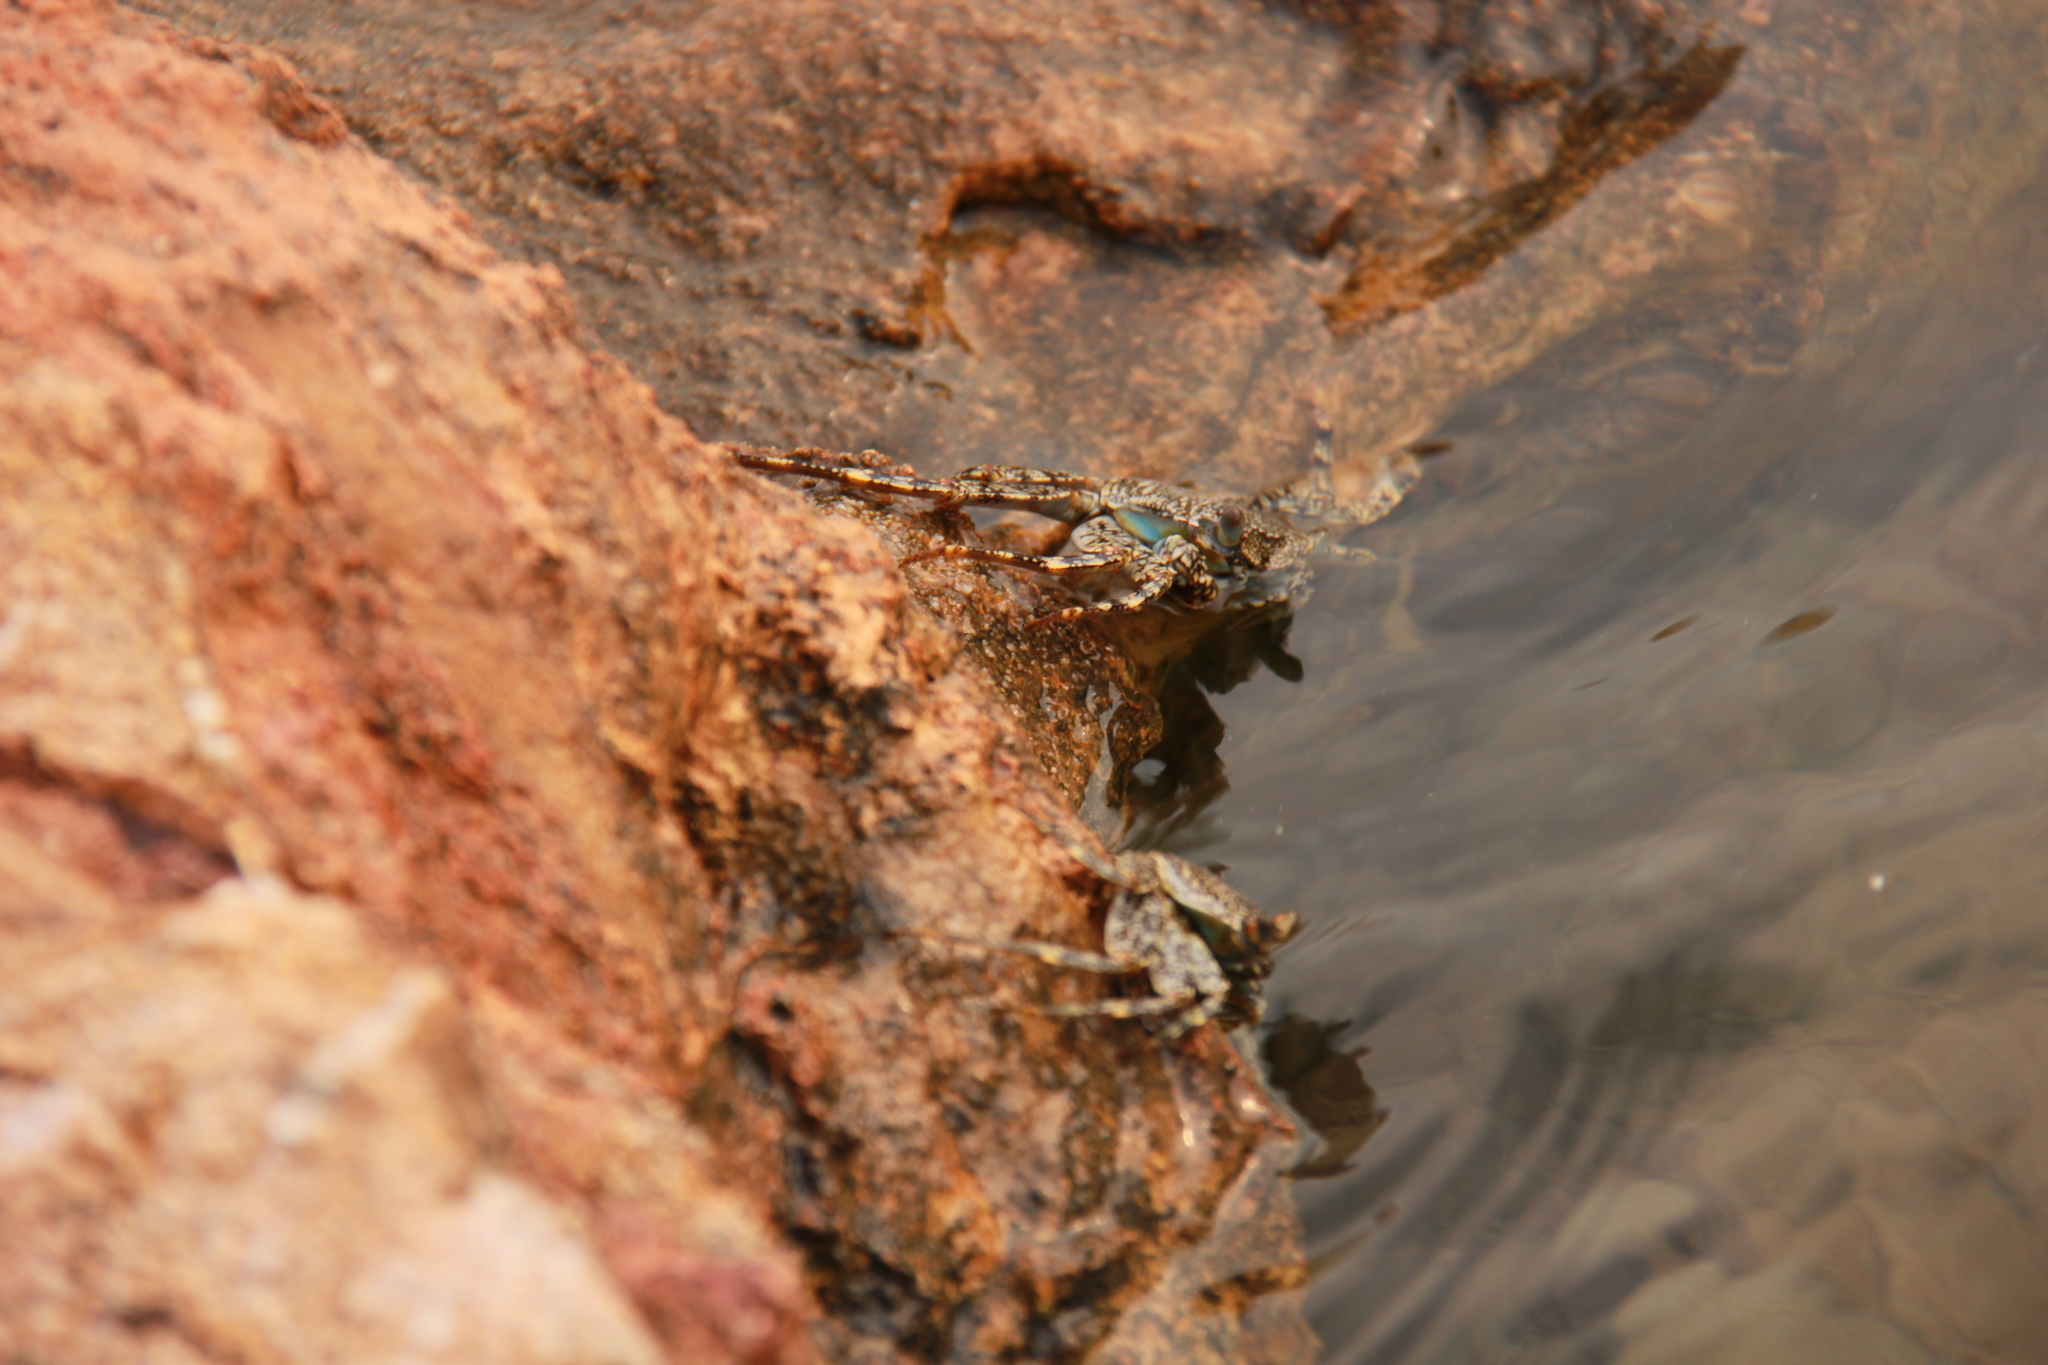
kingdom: Animalia
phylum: Arthropoda
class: Malacostraca
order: Decapoda
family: Grapsidae
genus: Grapsus
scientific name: Grapsus grapsus
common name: Sally lightfoot
